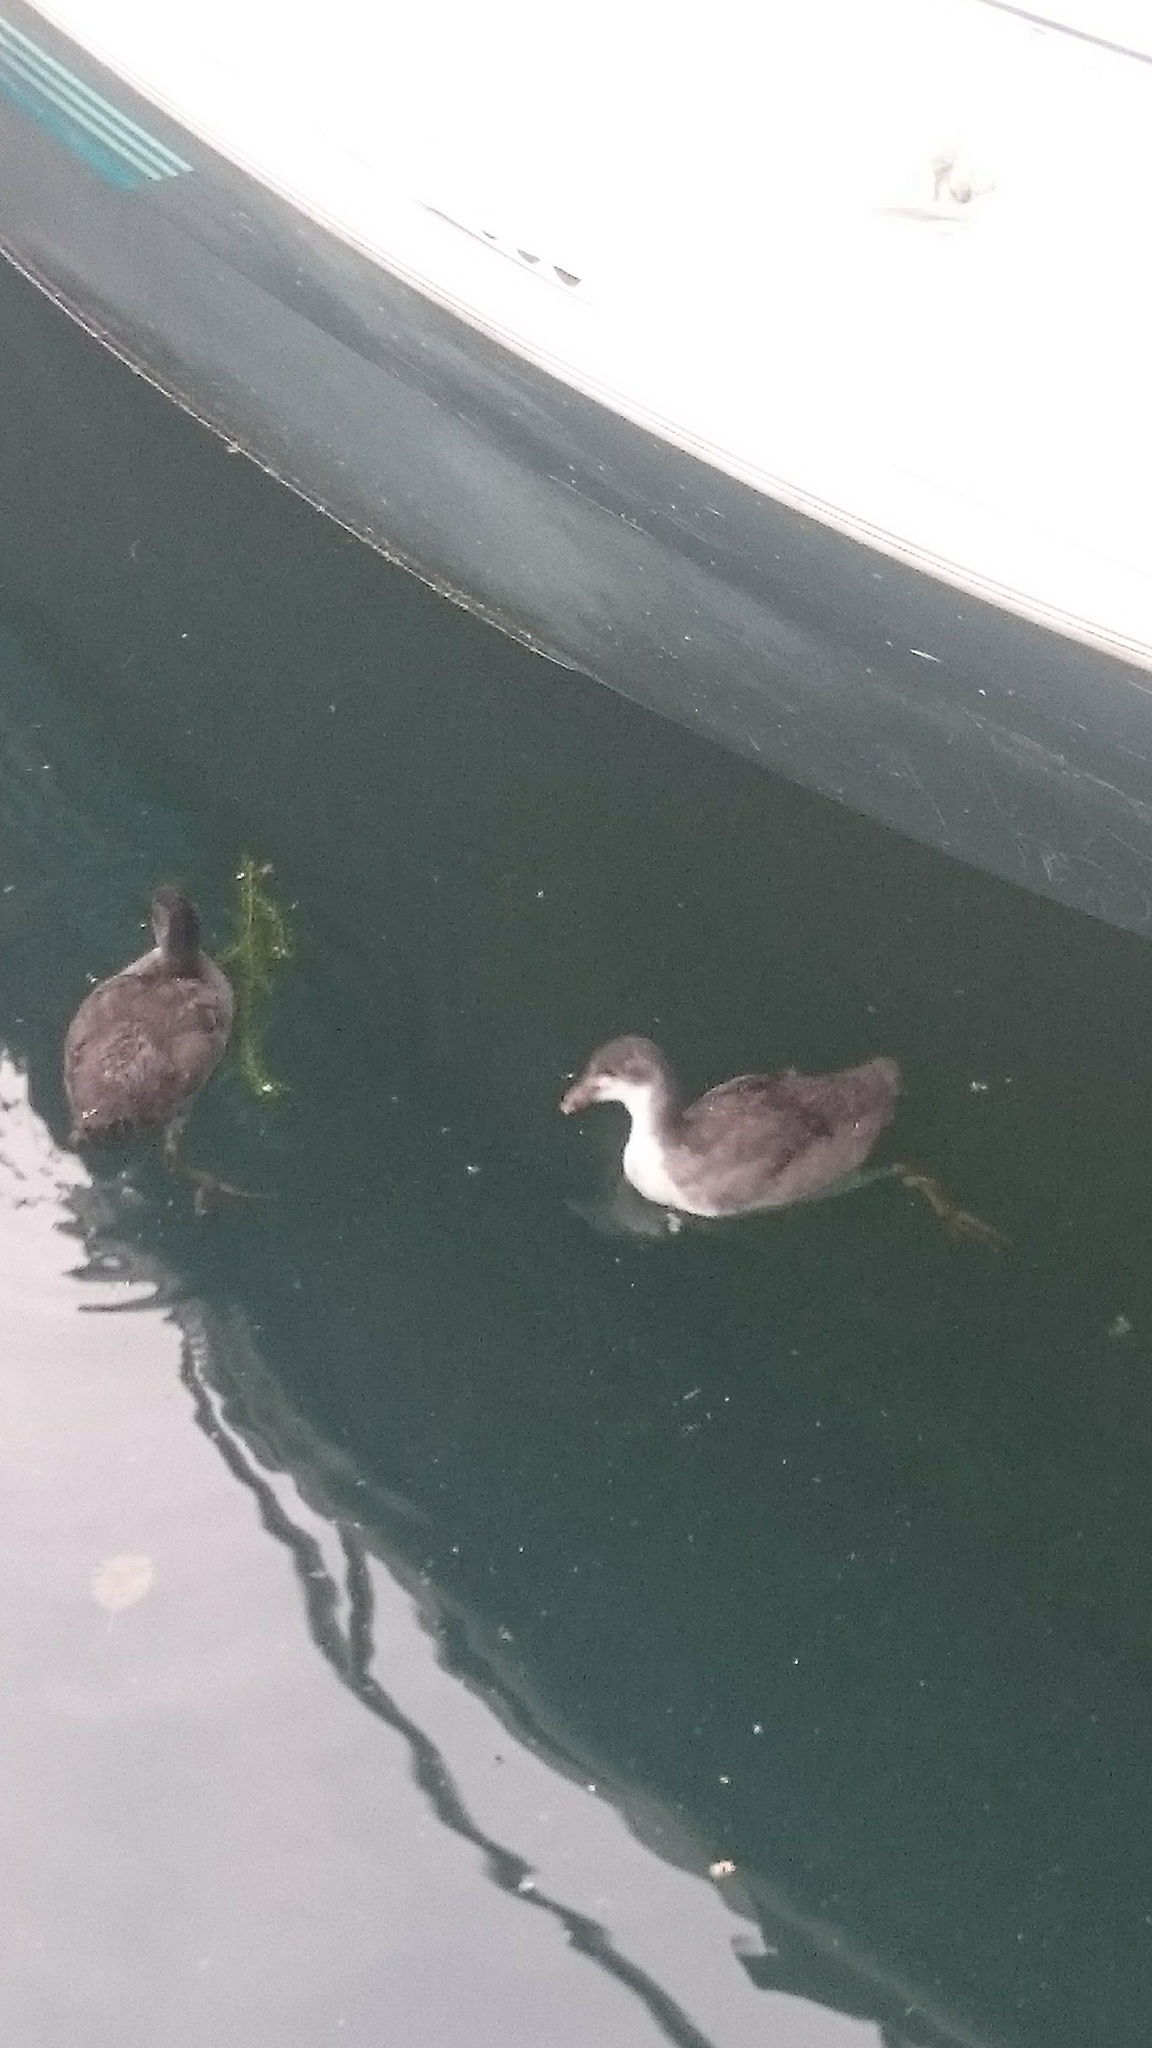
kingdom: Animalia
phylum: Chordata
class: Aves
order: Gruiformes
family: Rallidae
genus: Fulica
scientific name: Fulica atra
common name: Eurasian coot
